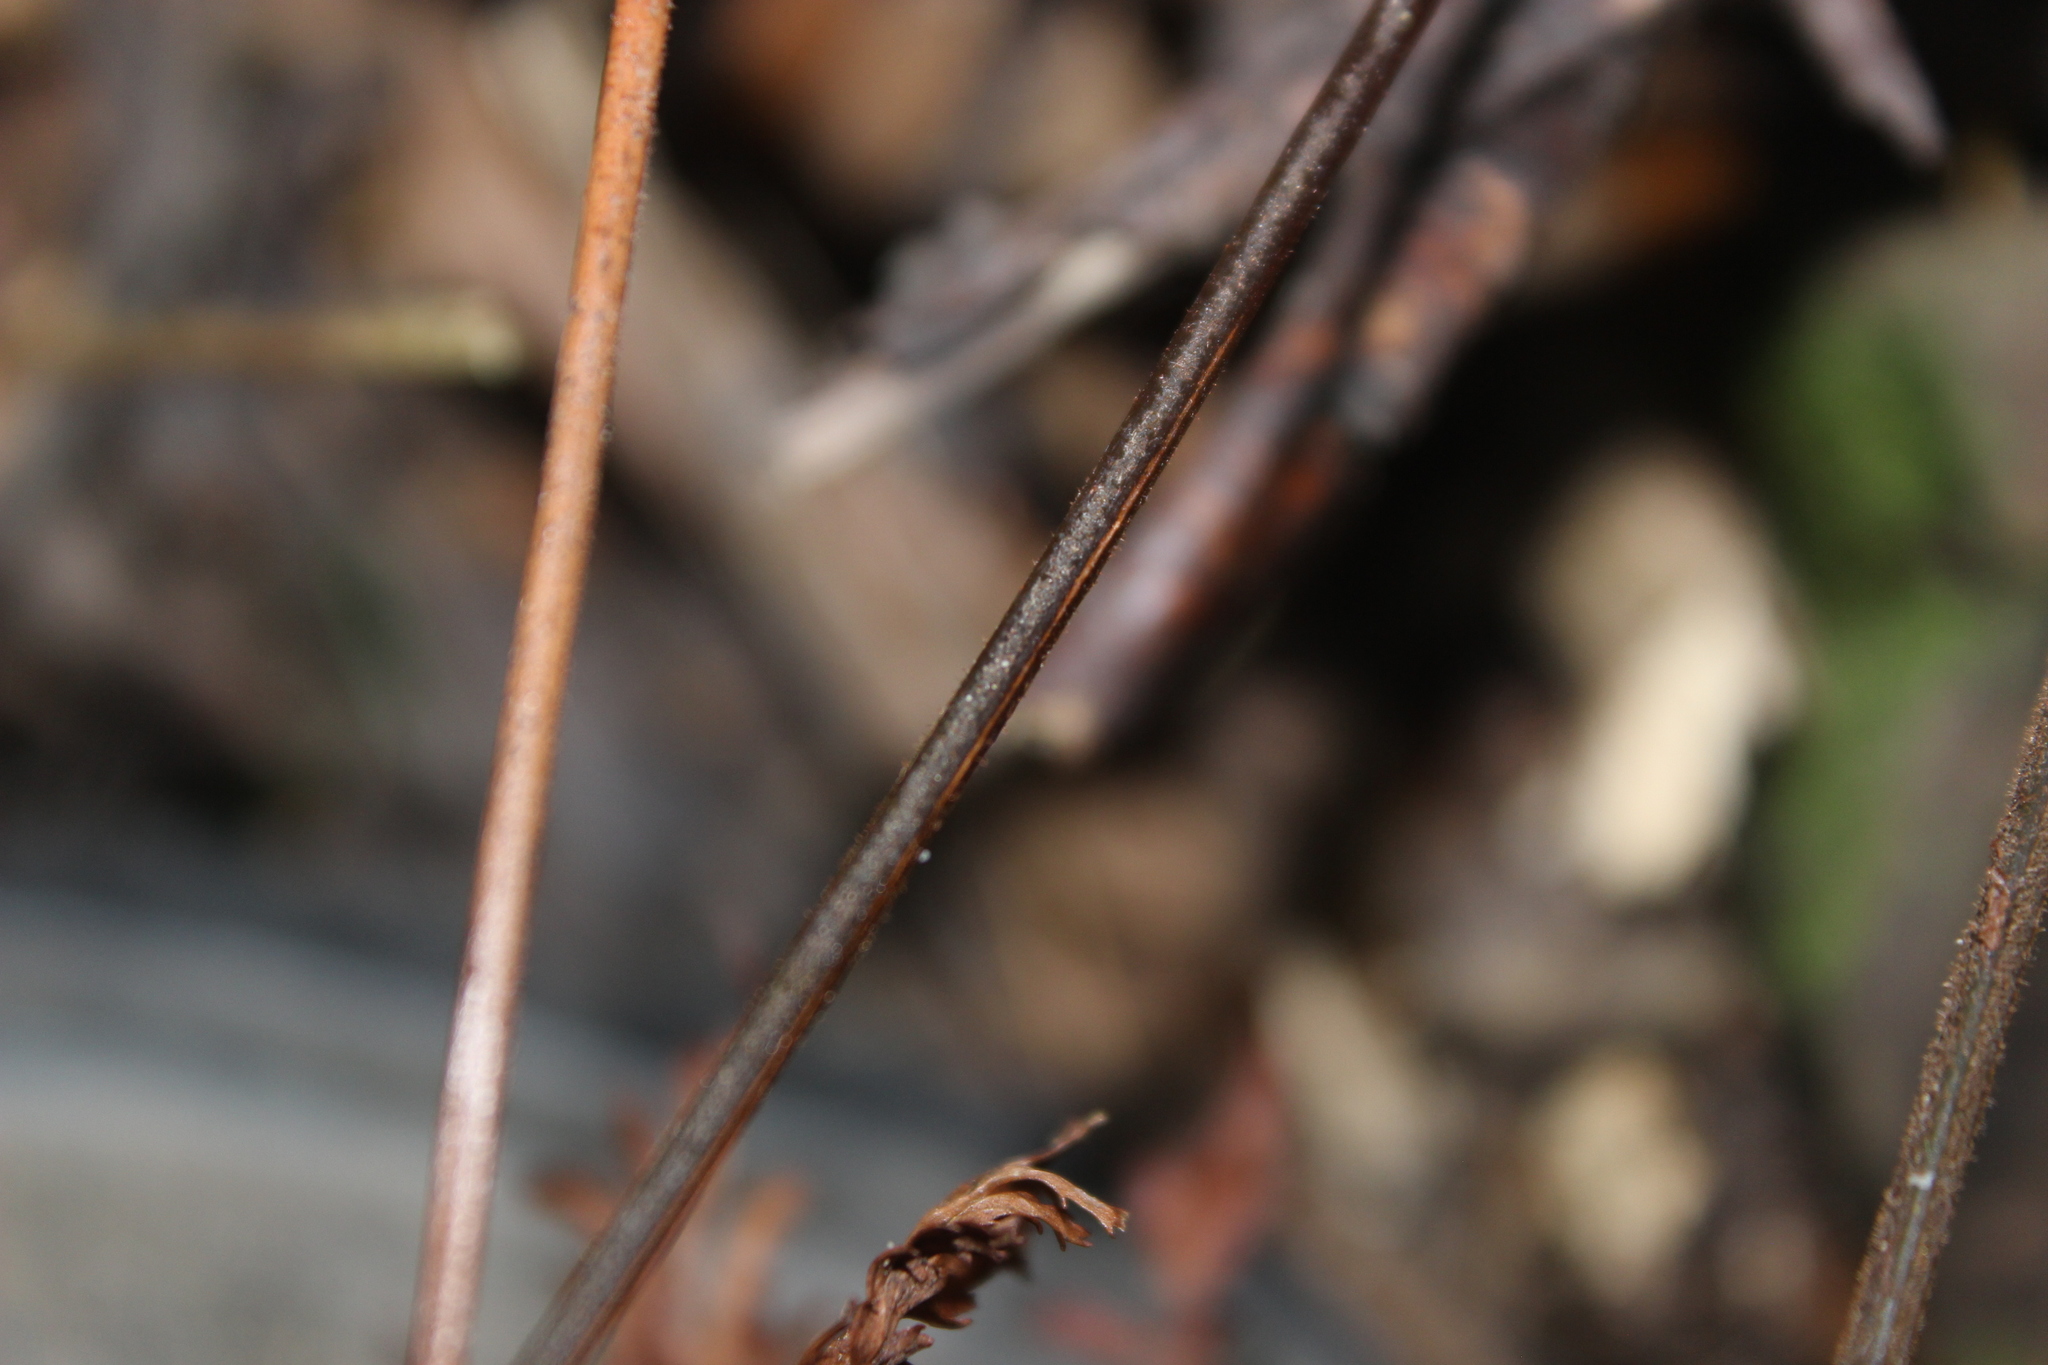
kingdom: Plantae
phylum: Tracheophyta
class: Polypodiopsida
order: Polypodiales
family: Dryopteridaceae
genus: Parapolystichum
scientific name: Parapolystichum glabellum
